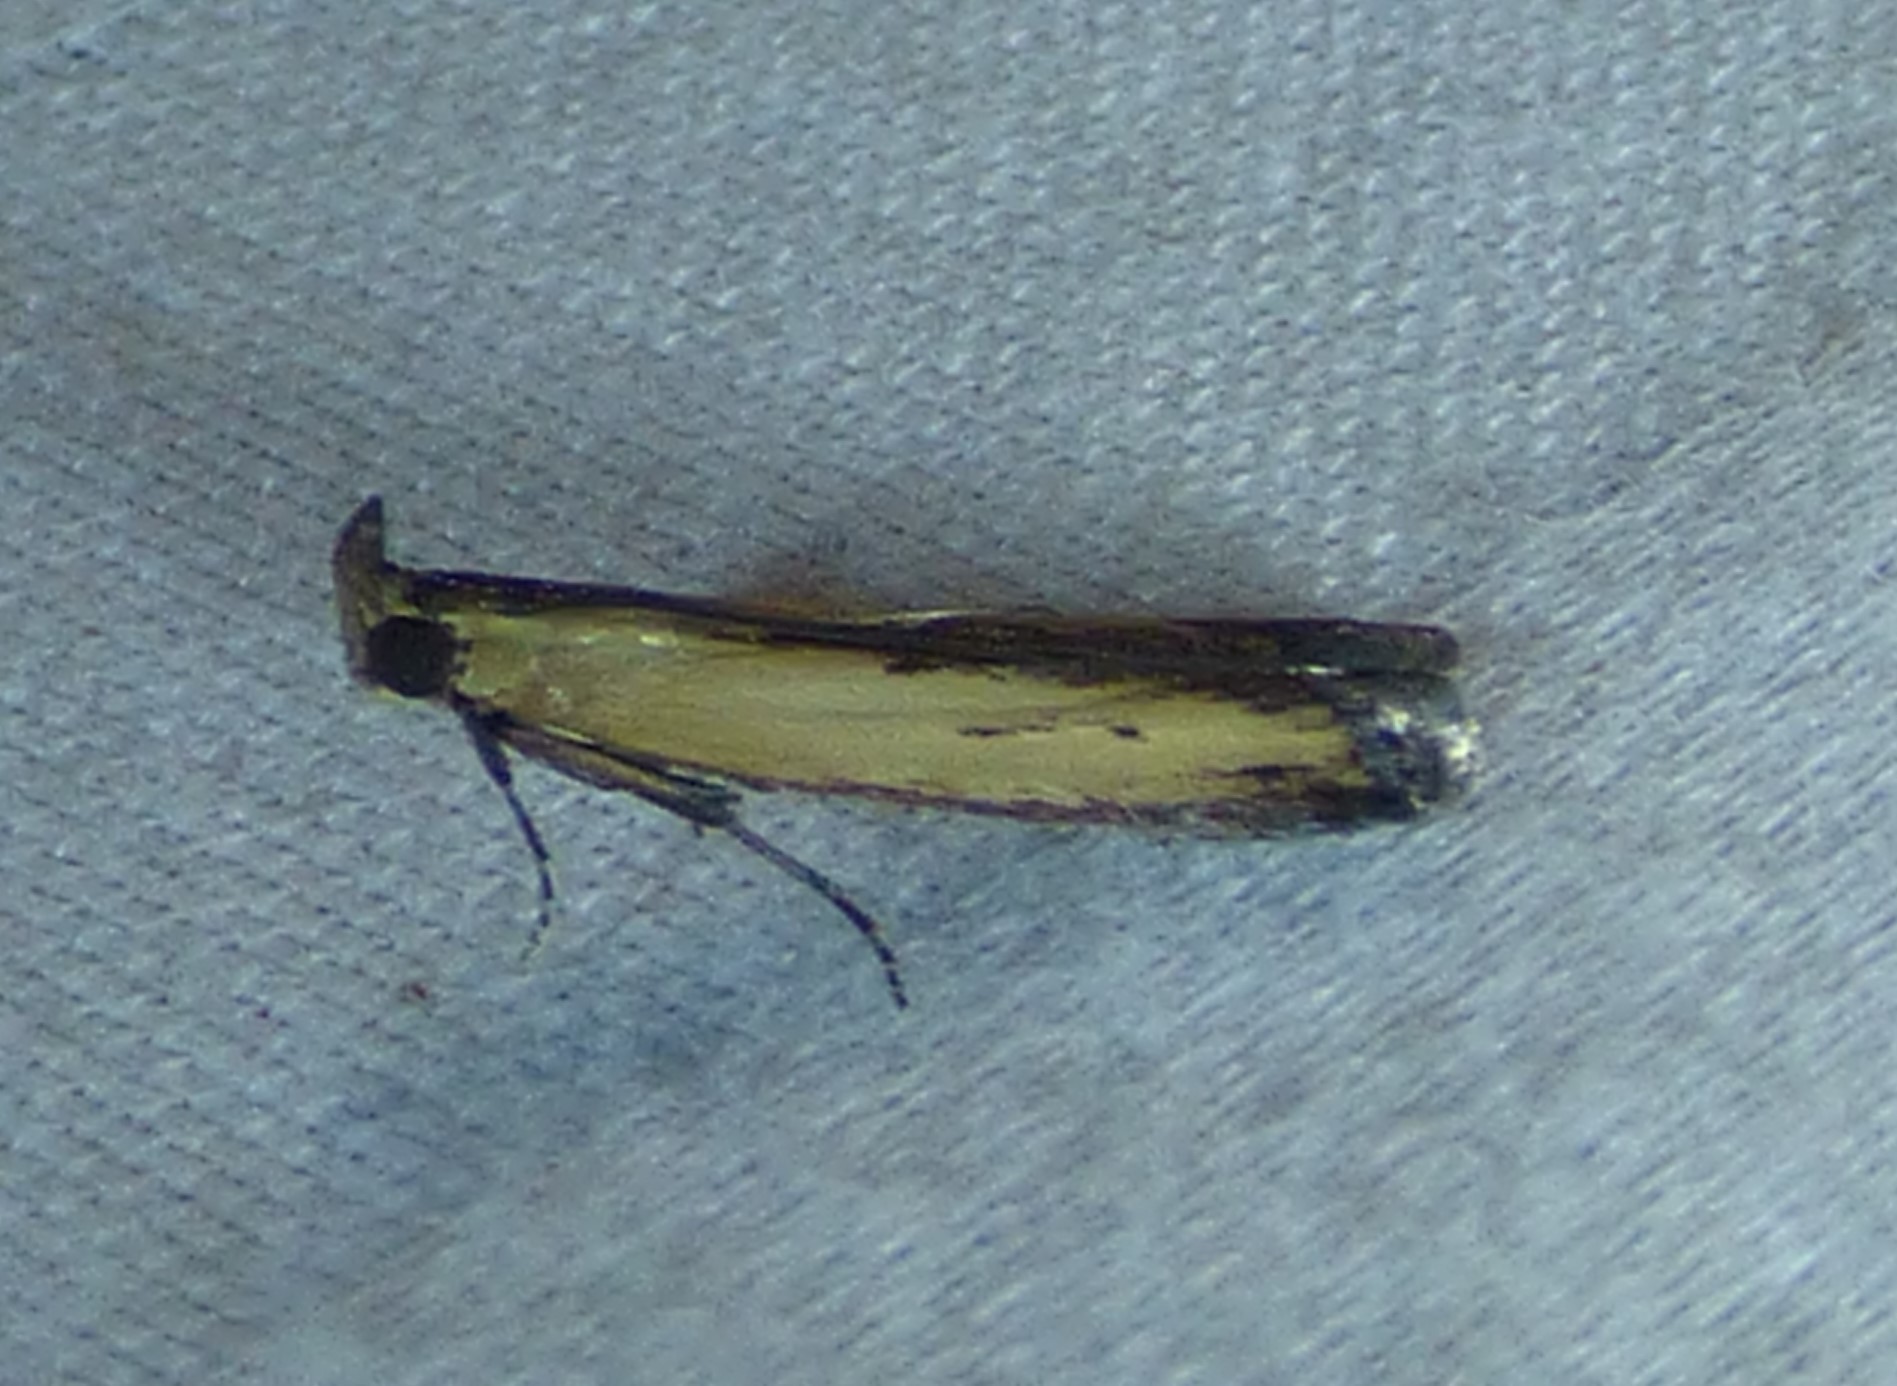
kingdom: Animalia
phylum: Arthropoda
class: Insecta
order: Lepidoptera
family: Pyralidae
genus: Elasmopalpus
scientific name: Elasmopalpus lignosella
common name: Lesser cornstalk borer
